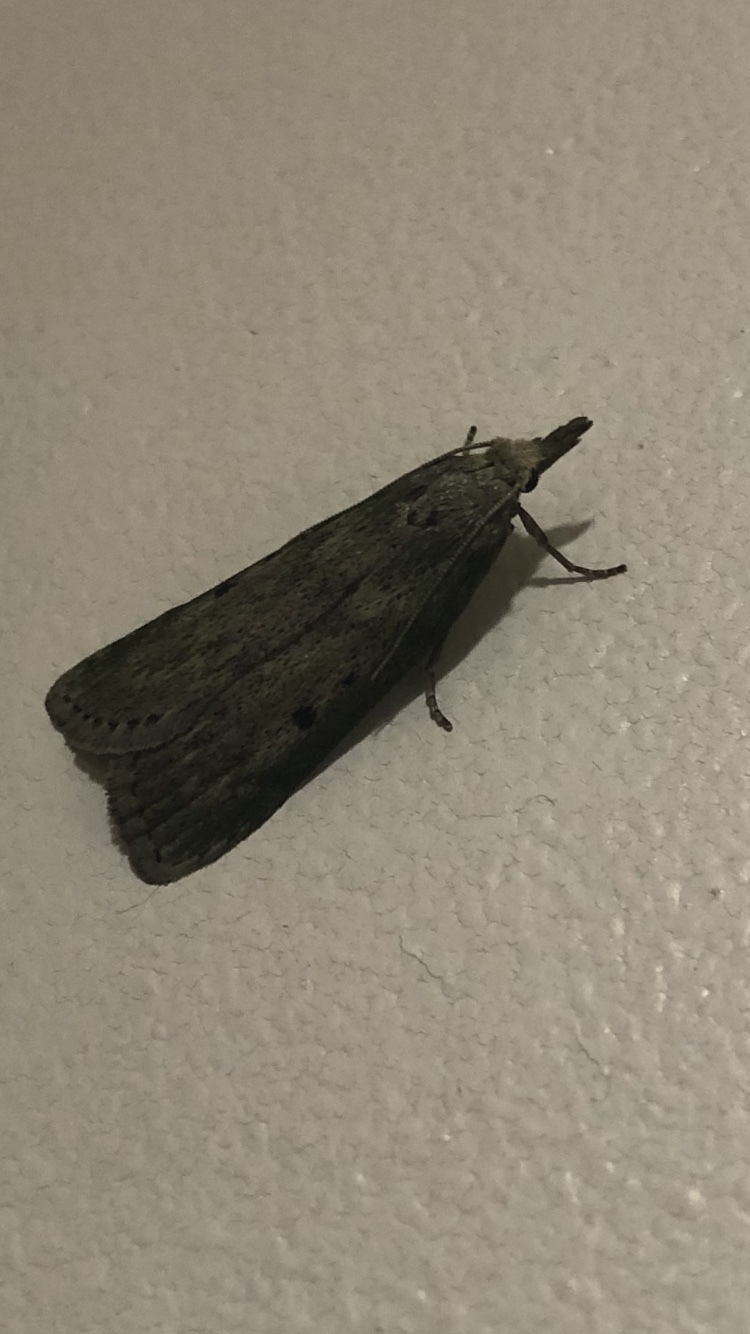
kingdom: Animalia
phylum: Arthropoda
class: Insecta
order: Lepidoptera
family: Pyralidae
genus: Aphomia
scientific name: Aphomia sociella
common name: Bee moth
